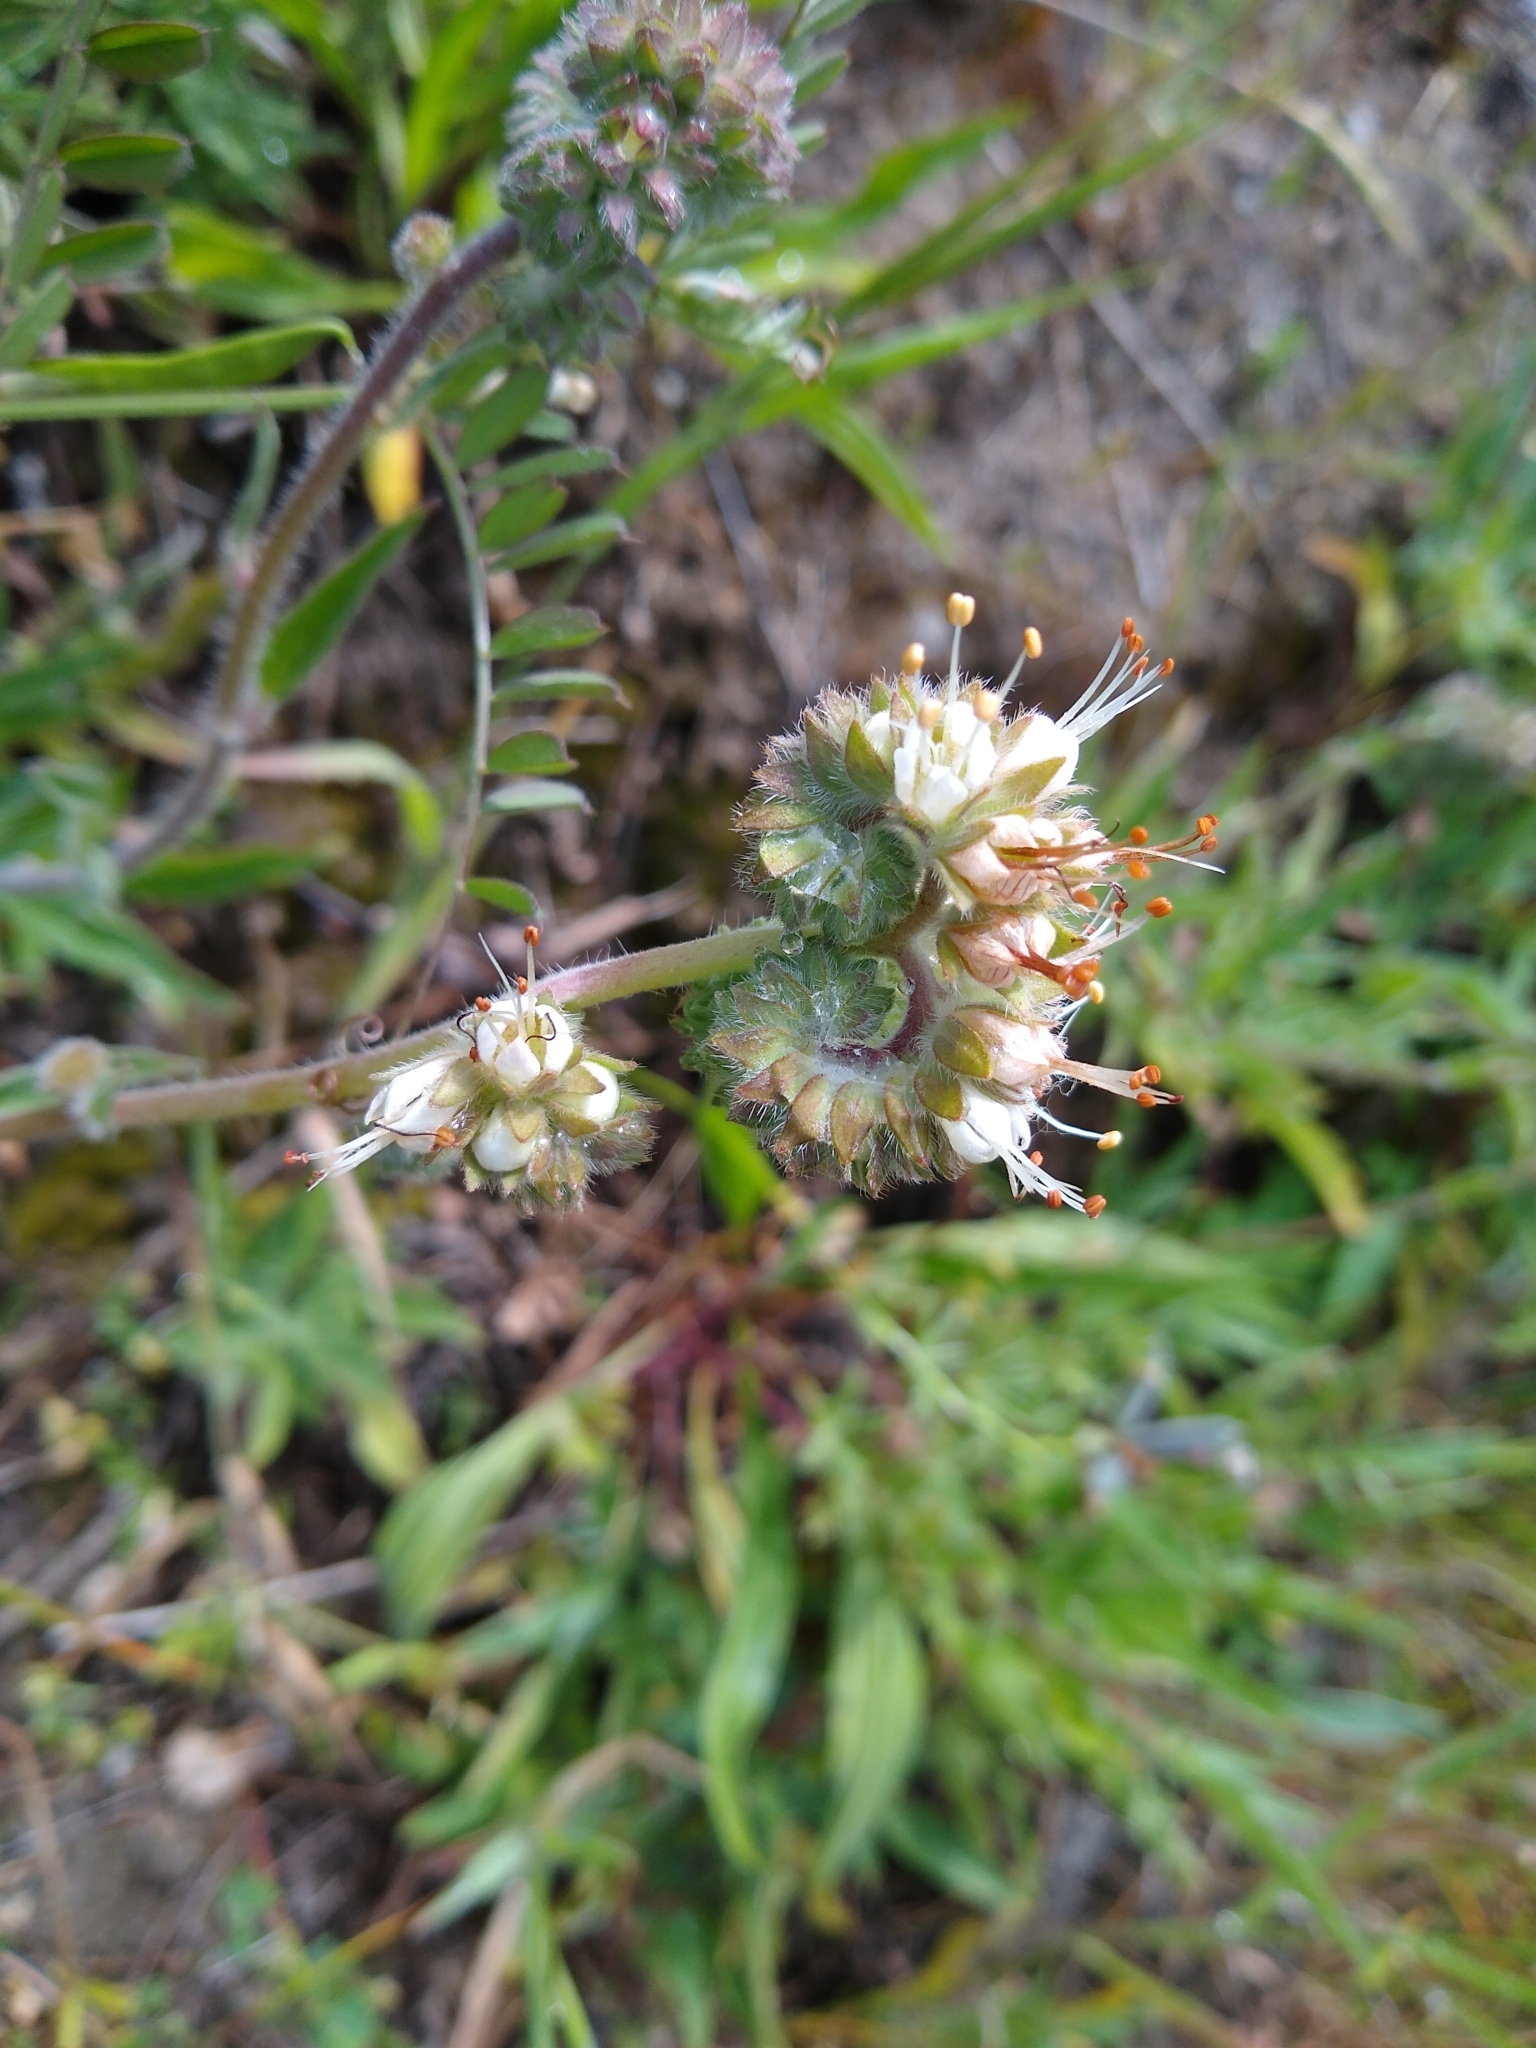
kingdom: Plantae
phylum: Tracheophyta
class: Magnoliopsida
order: Boraginales
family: Hydrophyllaceae
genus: Phacelia
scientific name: Phacelia imbricata
